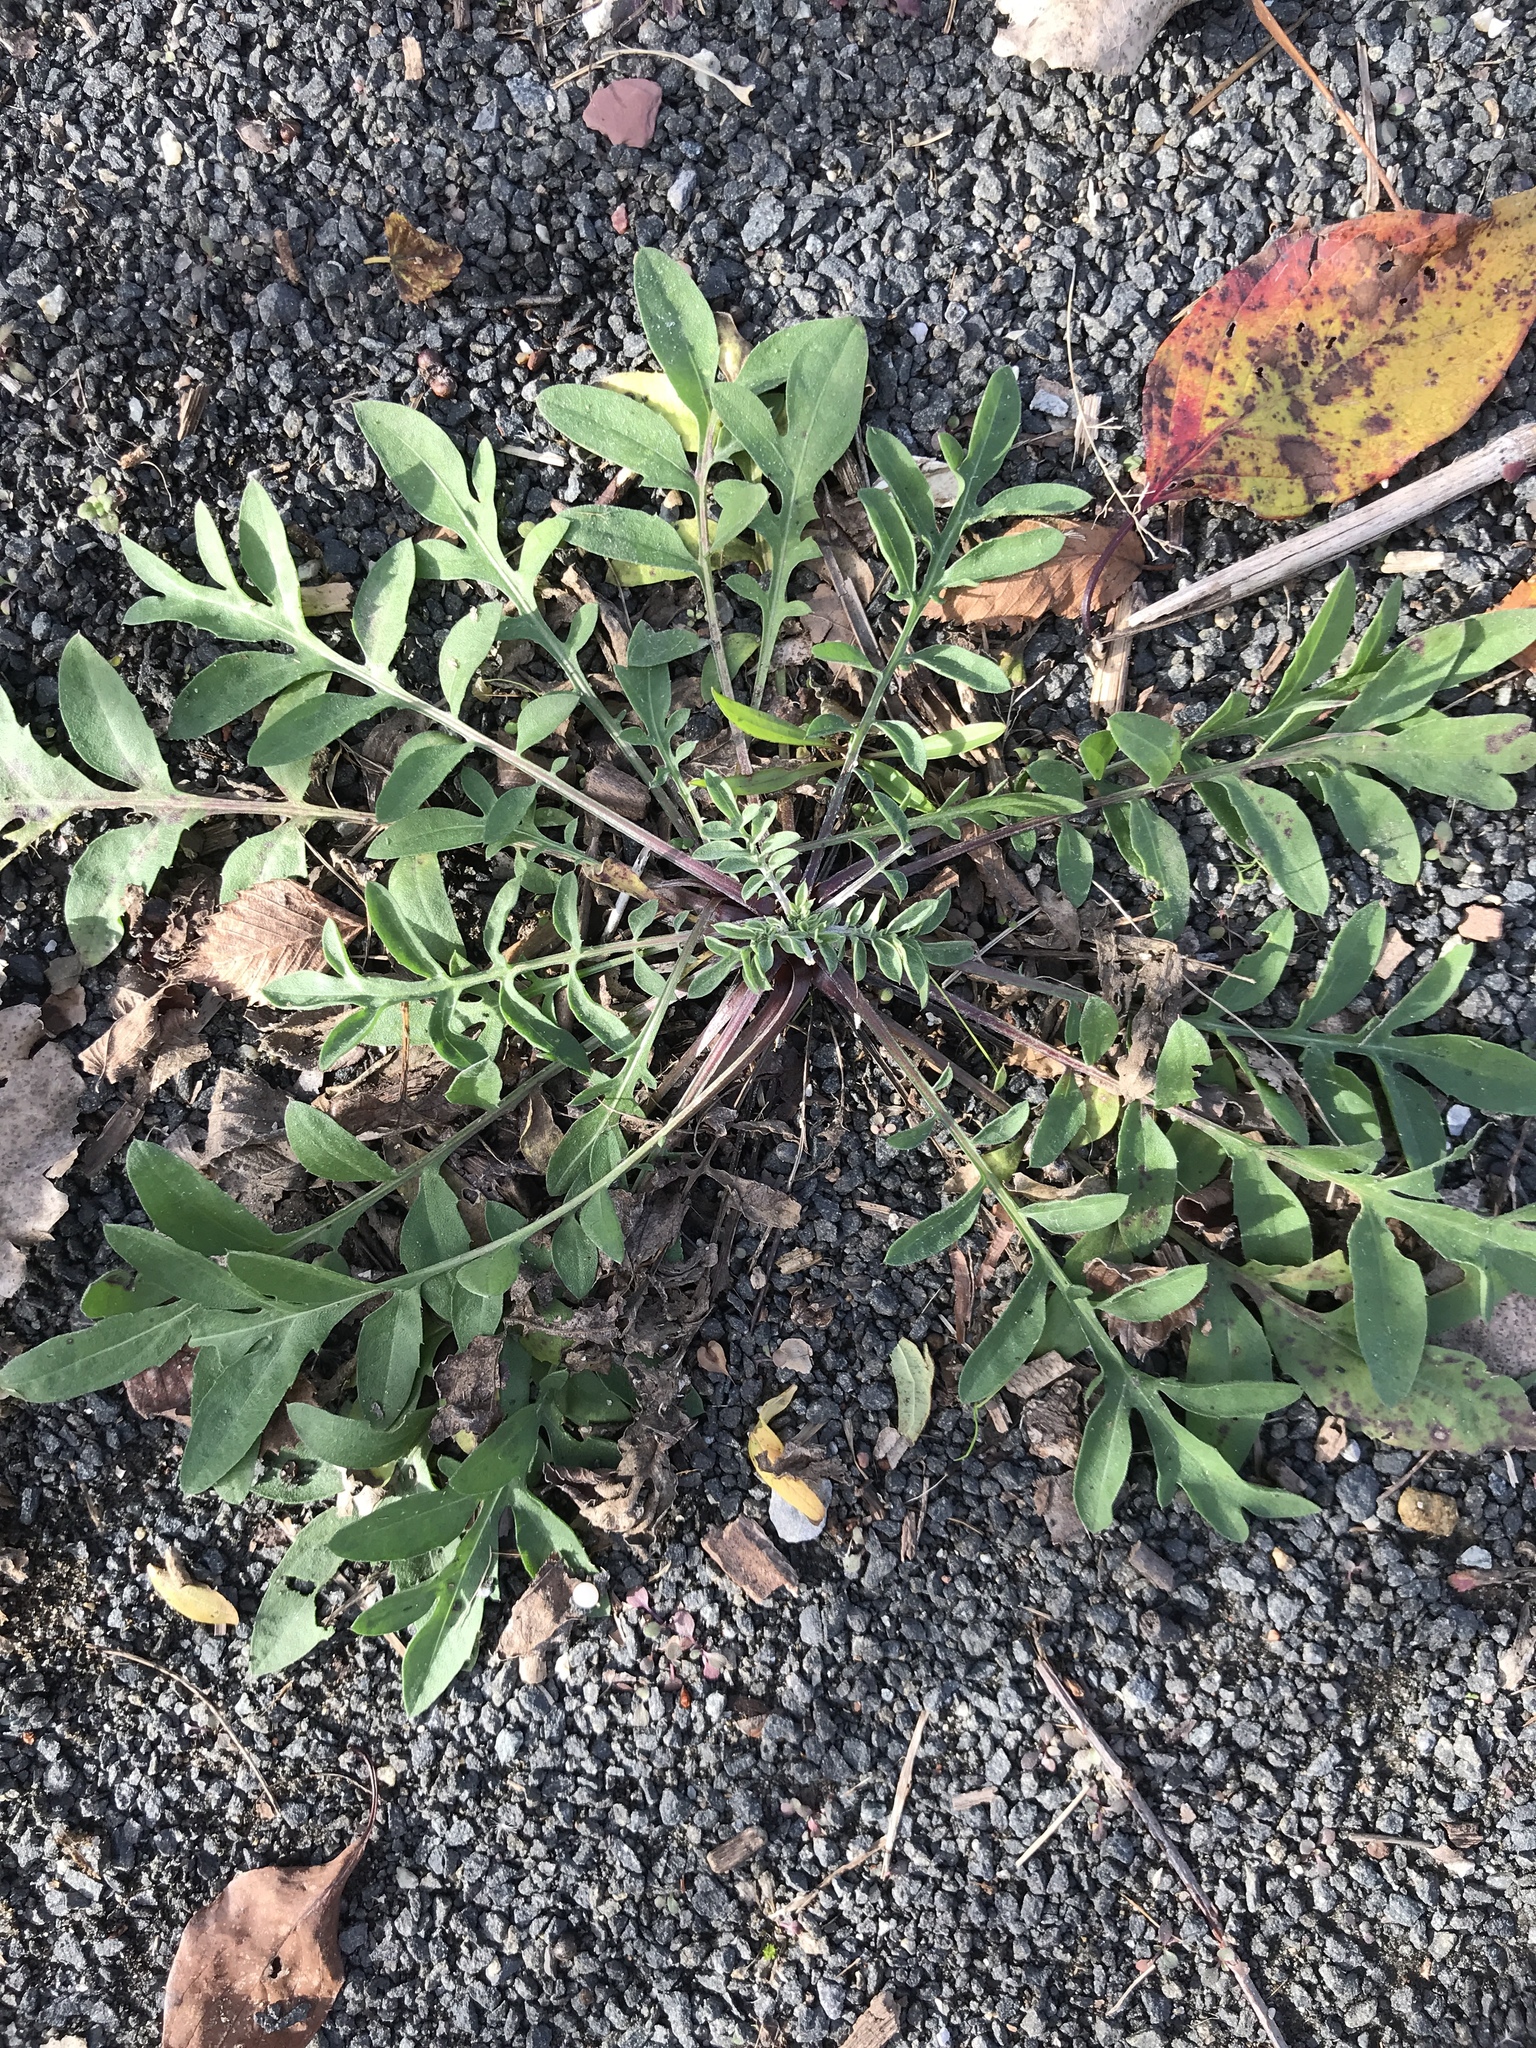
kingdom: Plantae
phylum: Tracheophyta
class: Magnoliopsida
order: Asterales
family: Asteraceae
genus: Centaurea
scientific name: Centaurea stoebe
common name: Spotted knapweed
